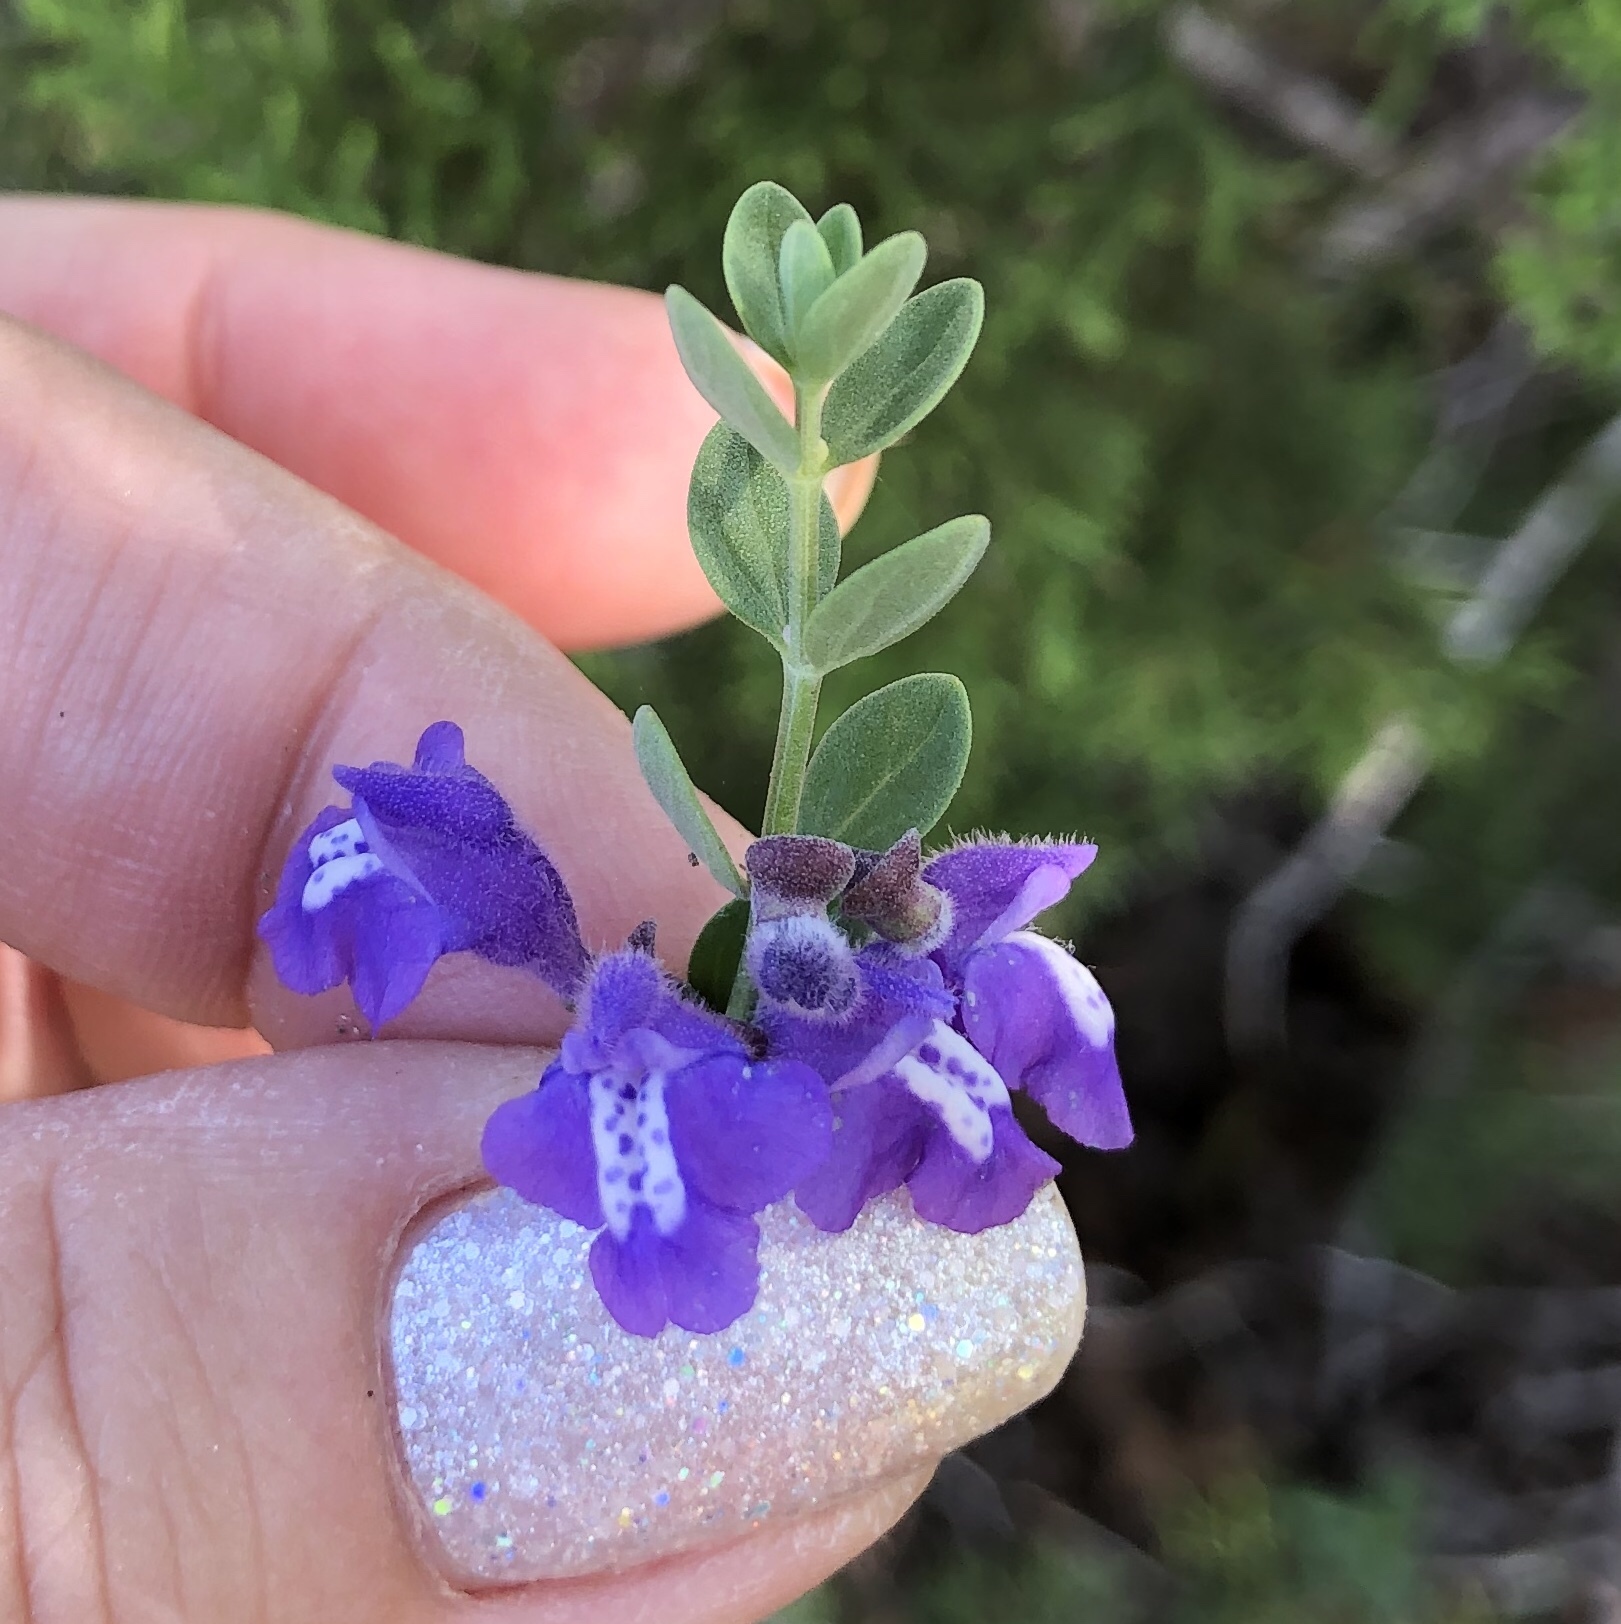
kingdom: Plantae
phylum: Tracheophyta
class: Magnoliopsida
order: Lamiales
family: Lamiaceae
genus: Scutellaria
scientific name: Scutellaria wrightii
